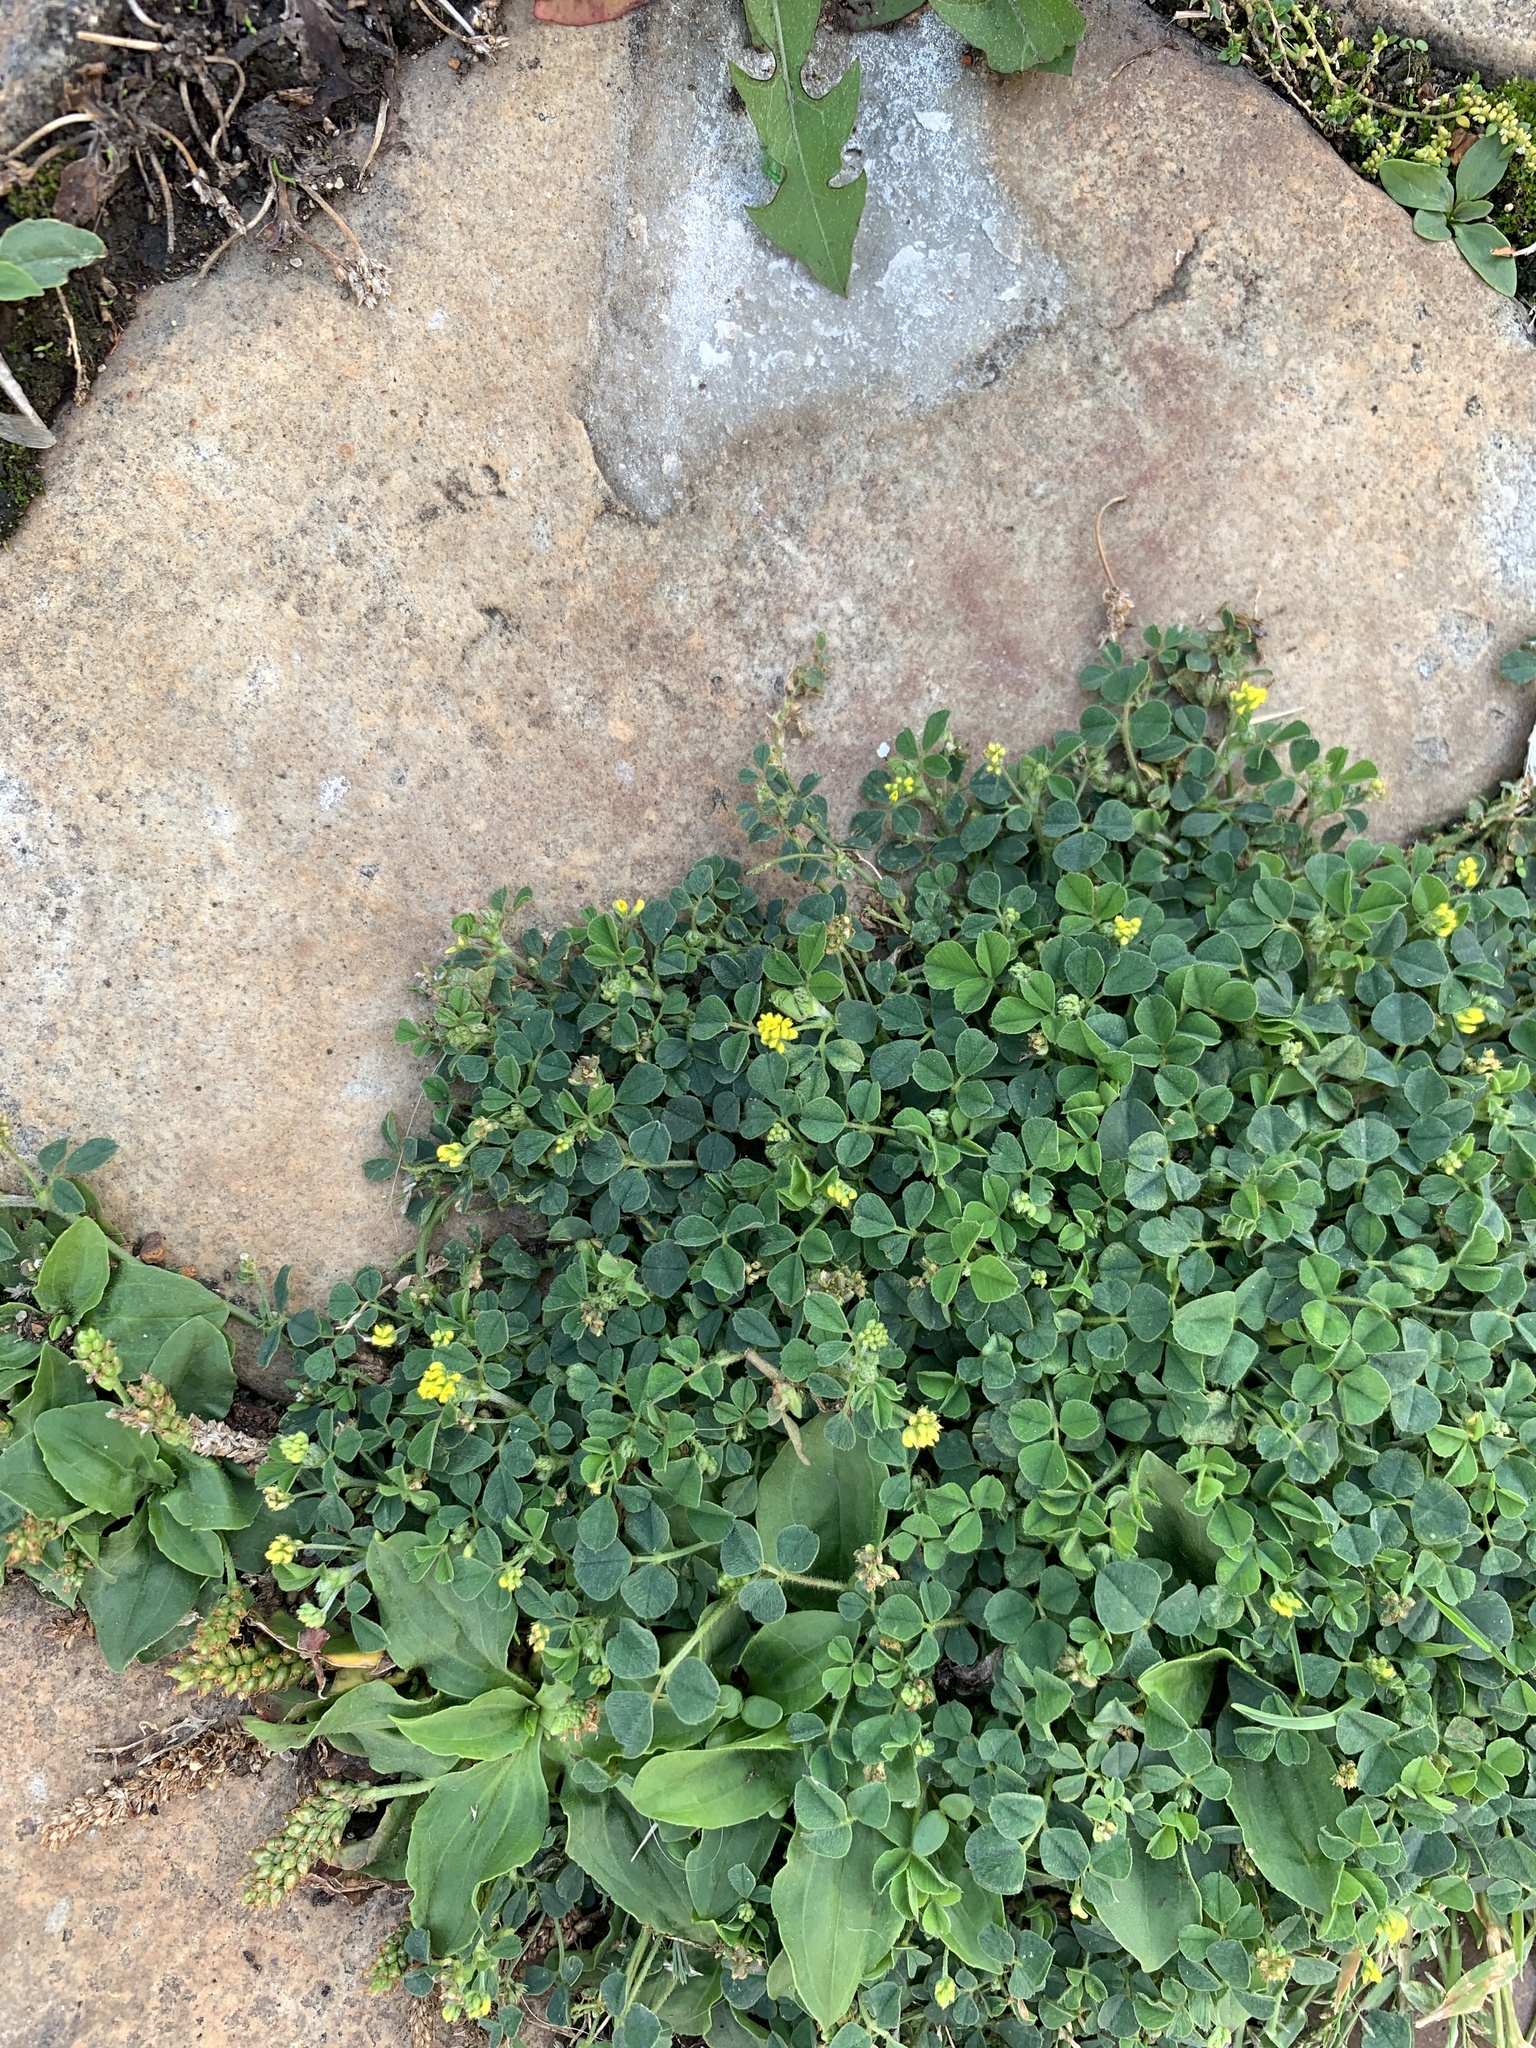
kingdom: Plantae
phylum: Tracheophyta
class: Magnoliopsida
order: Fabales
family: Fabaceae
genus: Medicago
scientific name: Medicago lupulina
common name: Black medick
